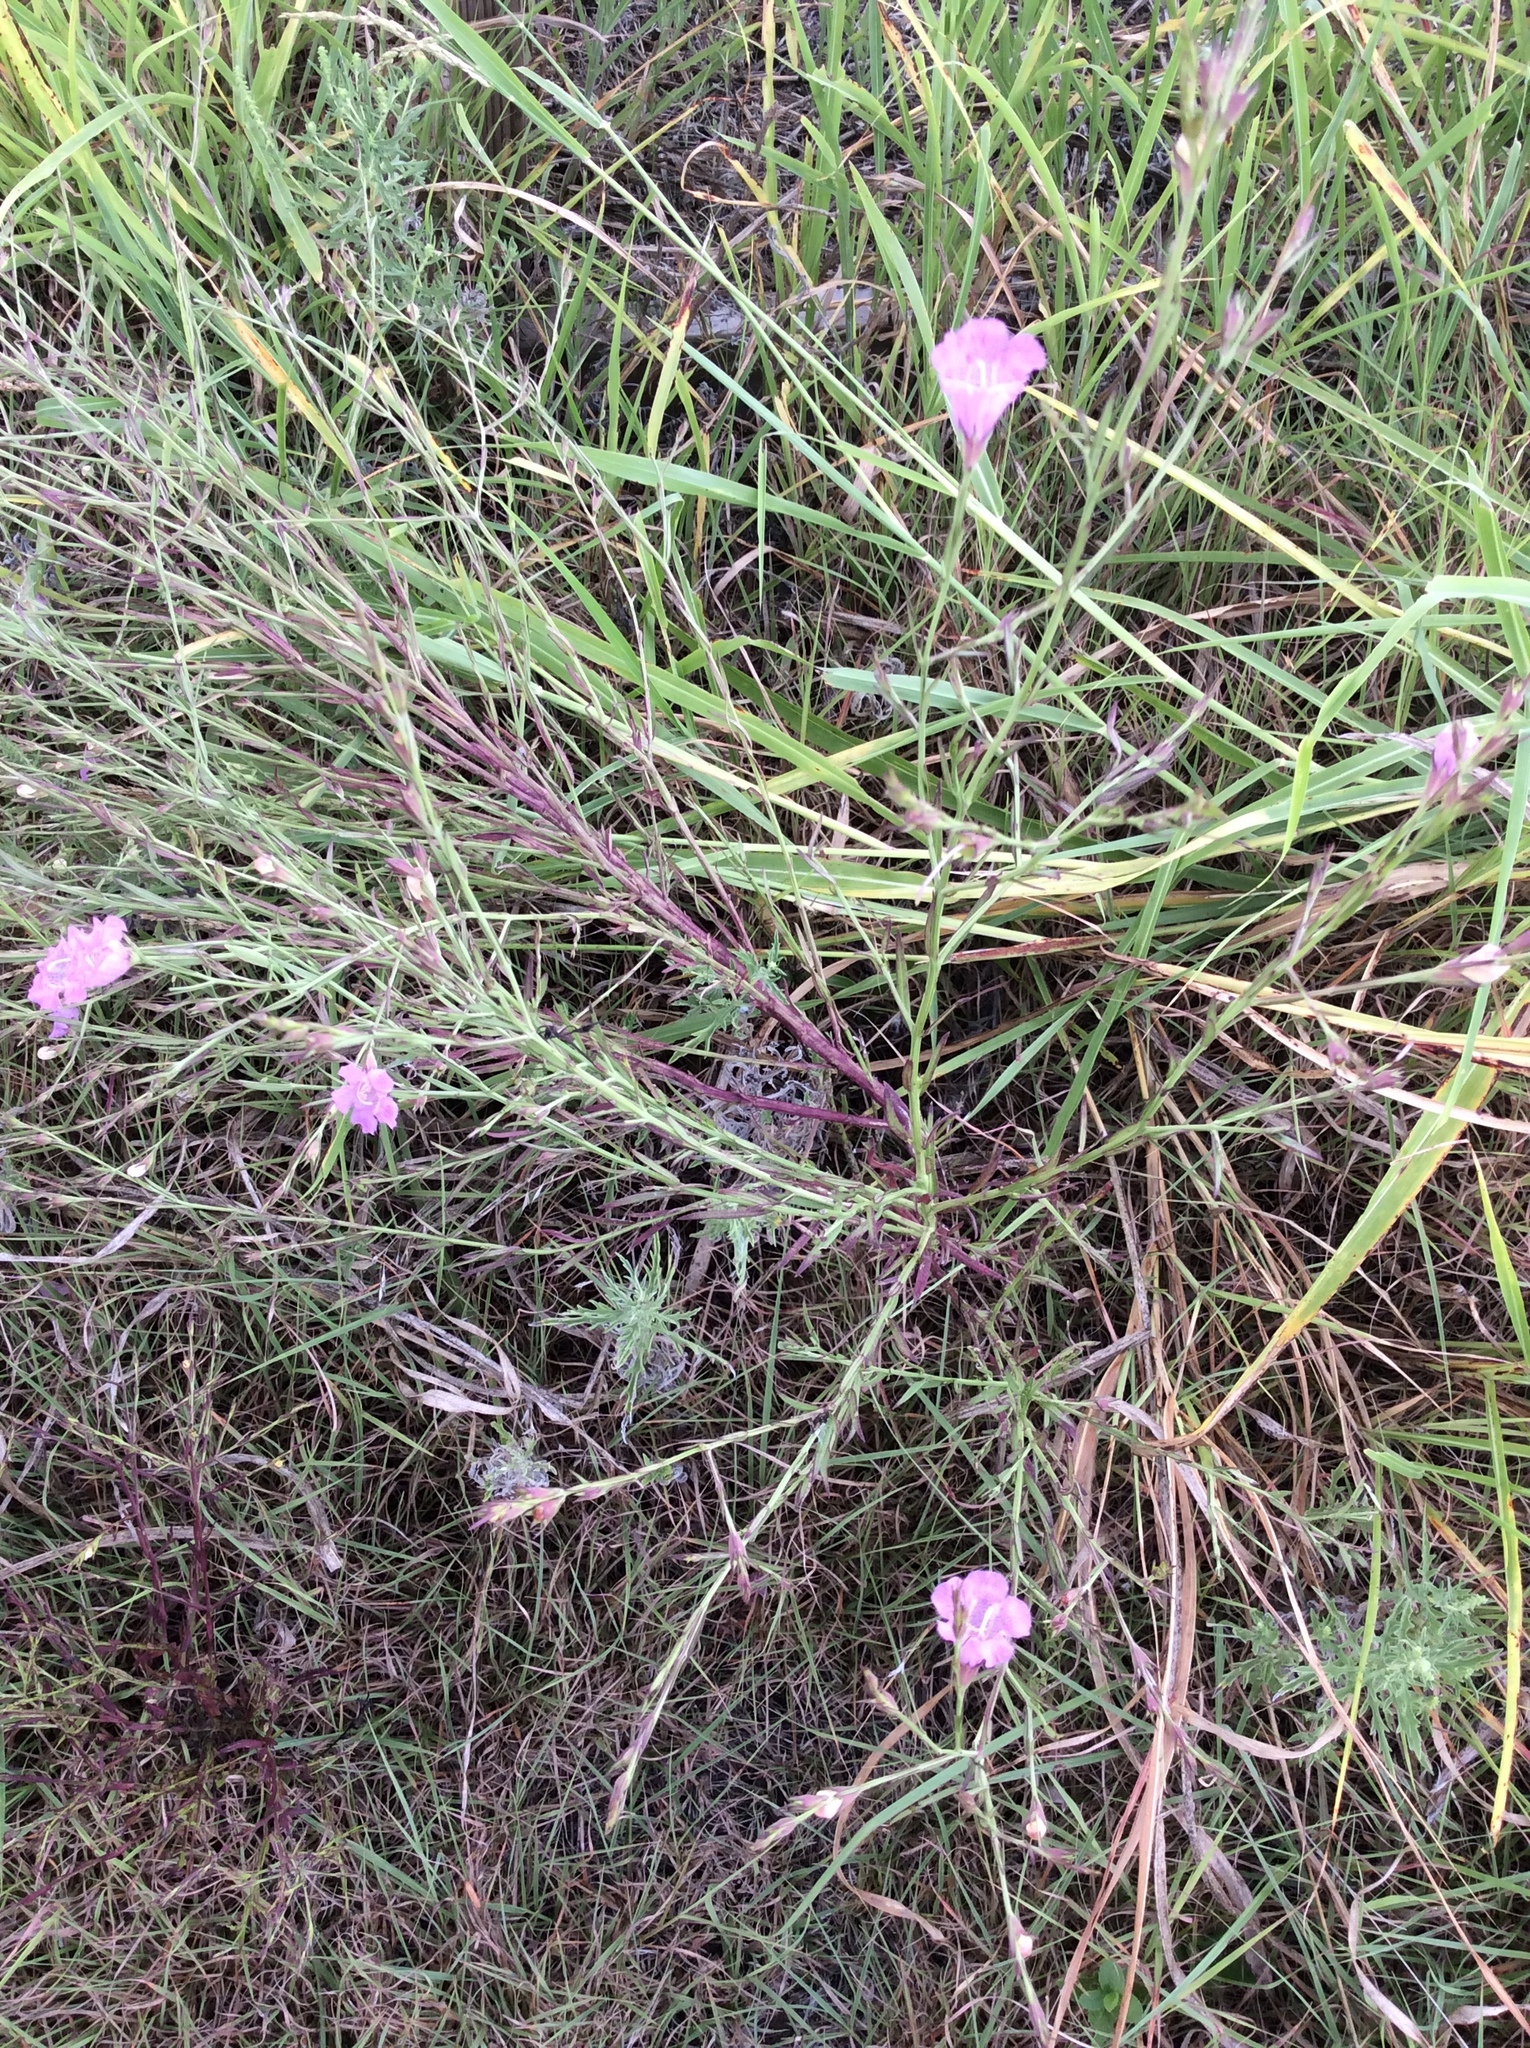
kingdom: Plantae
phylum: Tracheophyta
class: Magnoliopsida
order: Lamiales
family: Orobanchaceae
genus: Agalinis
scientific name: Agalinis heterophylla
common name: Prairie agalinis
